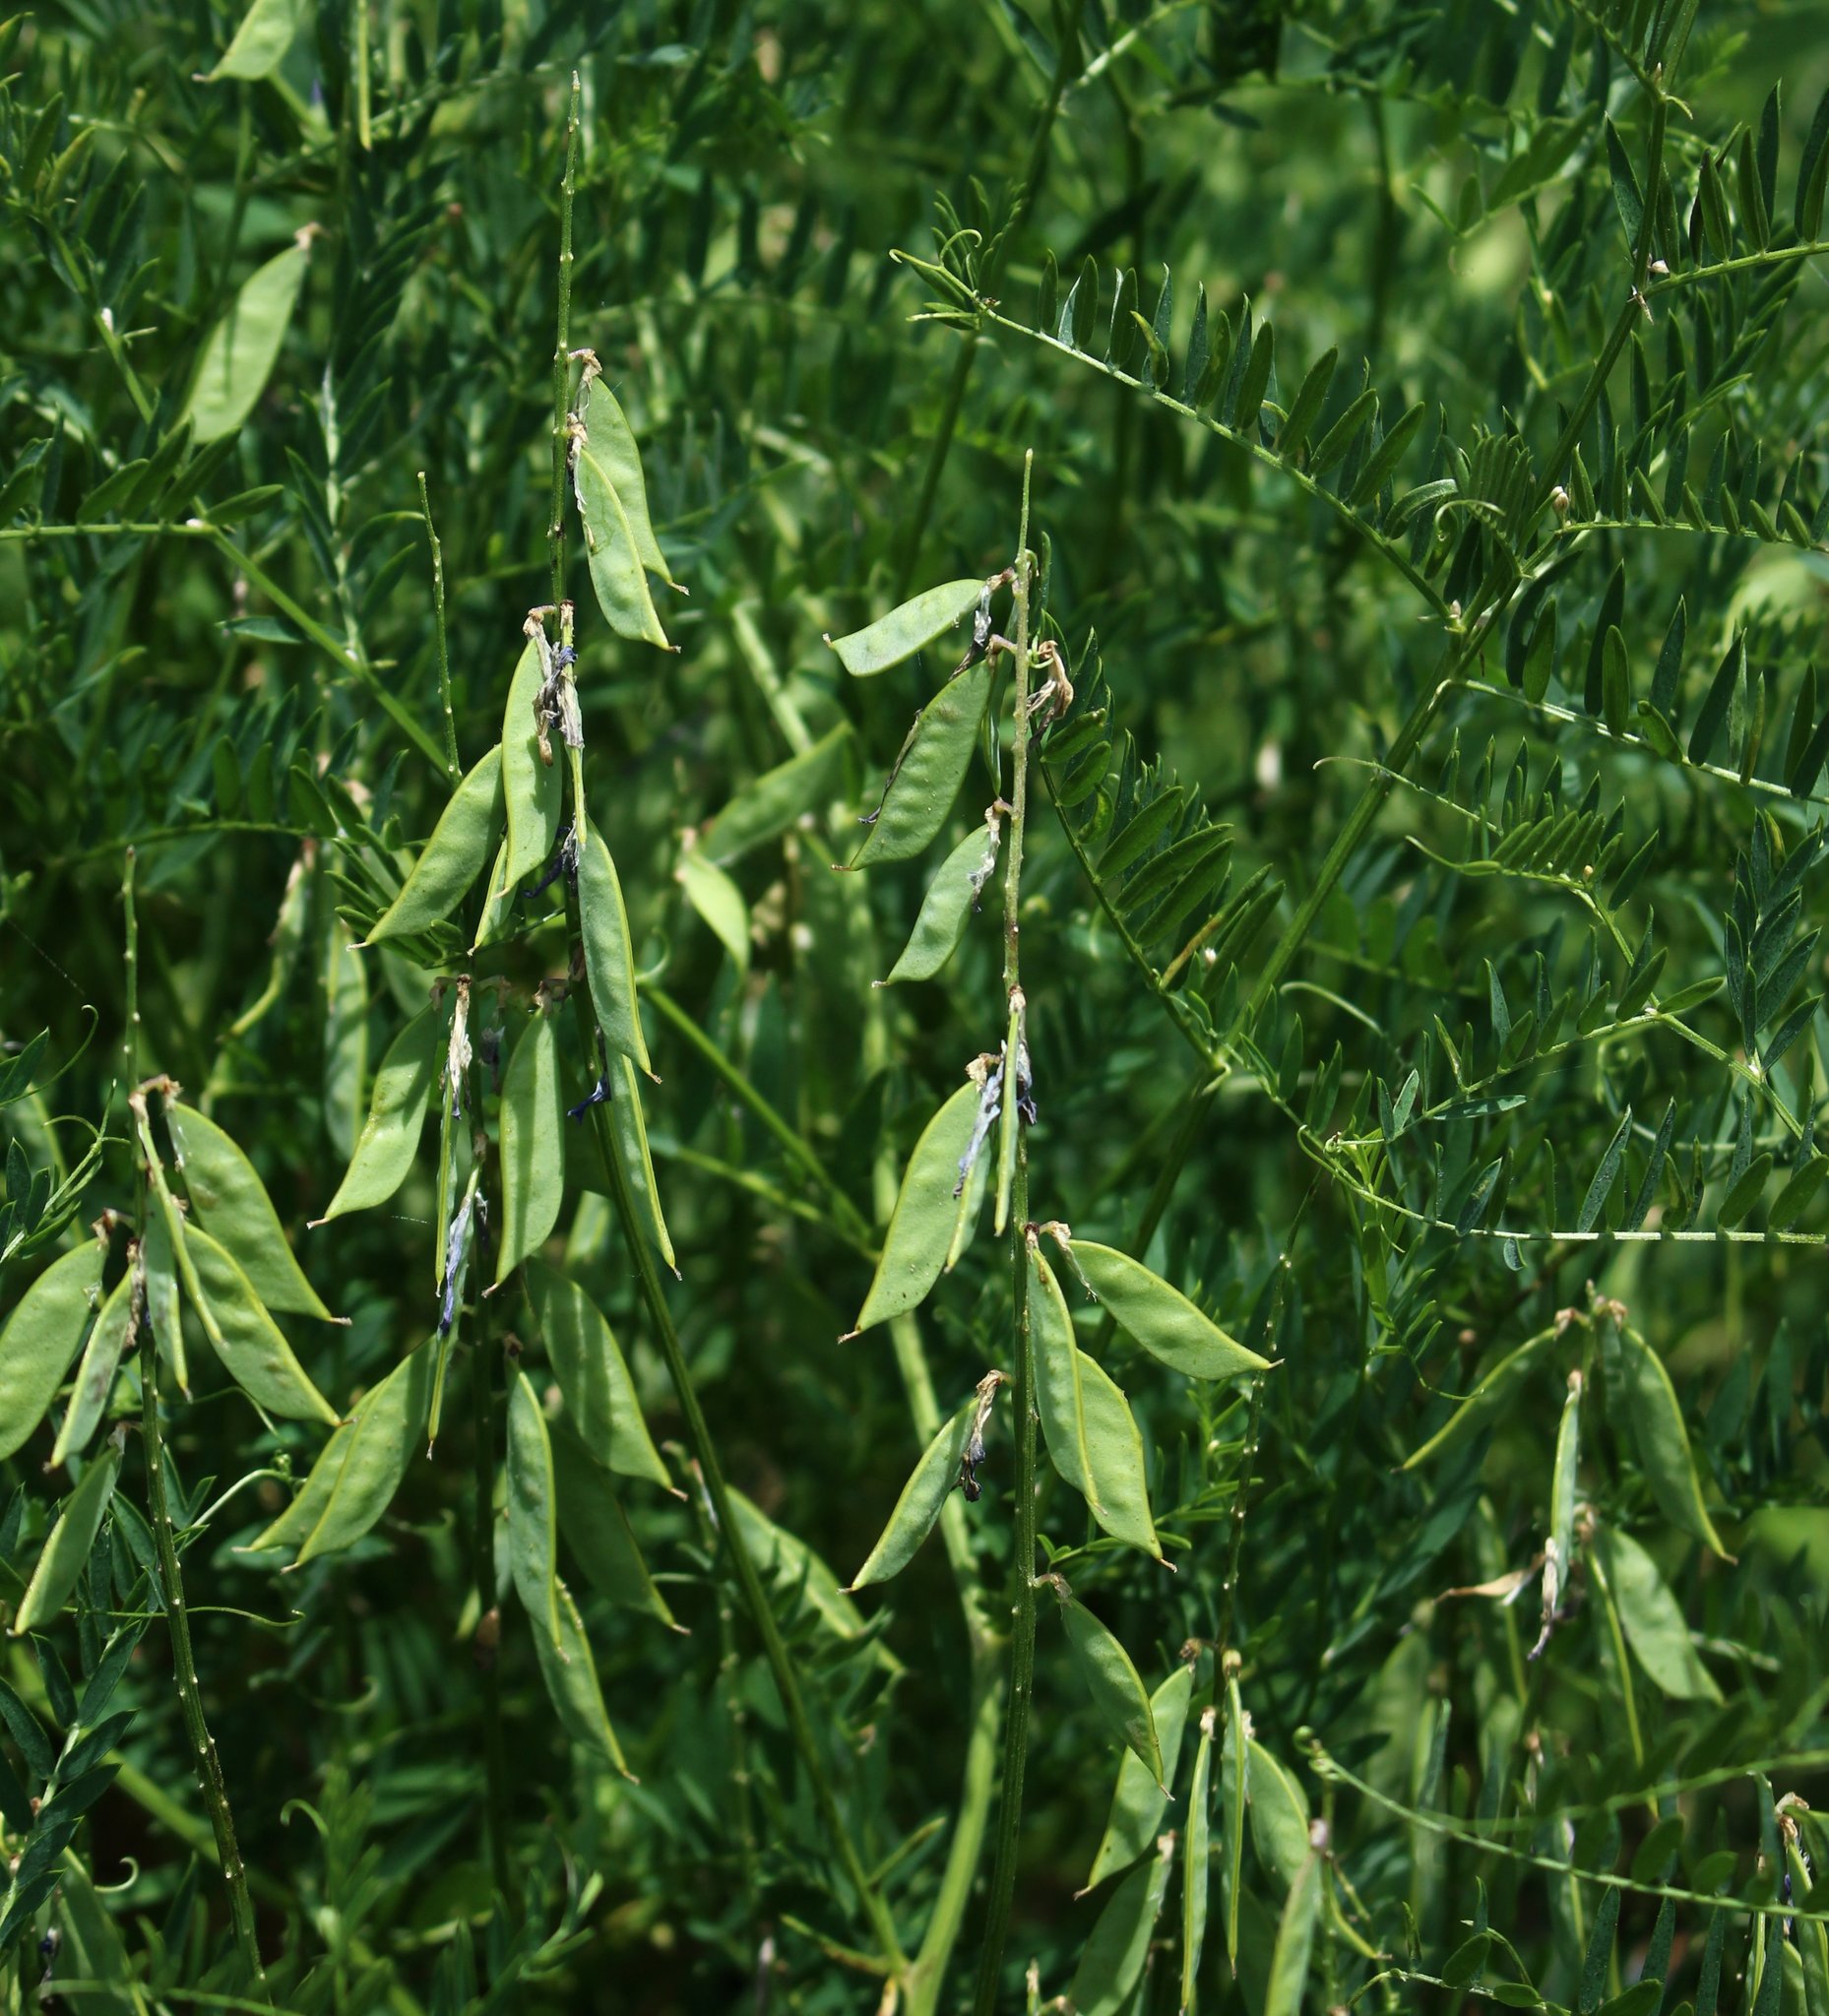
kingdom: Plantae
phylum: Tracheophyta
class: Magnoliopsida
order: Fabales
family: Fabaceae
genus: Vicia
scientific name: Vicia tenuifolia
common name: Fine-leaved vetch
